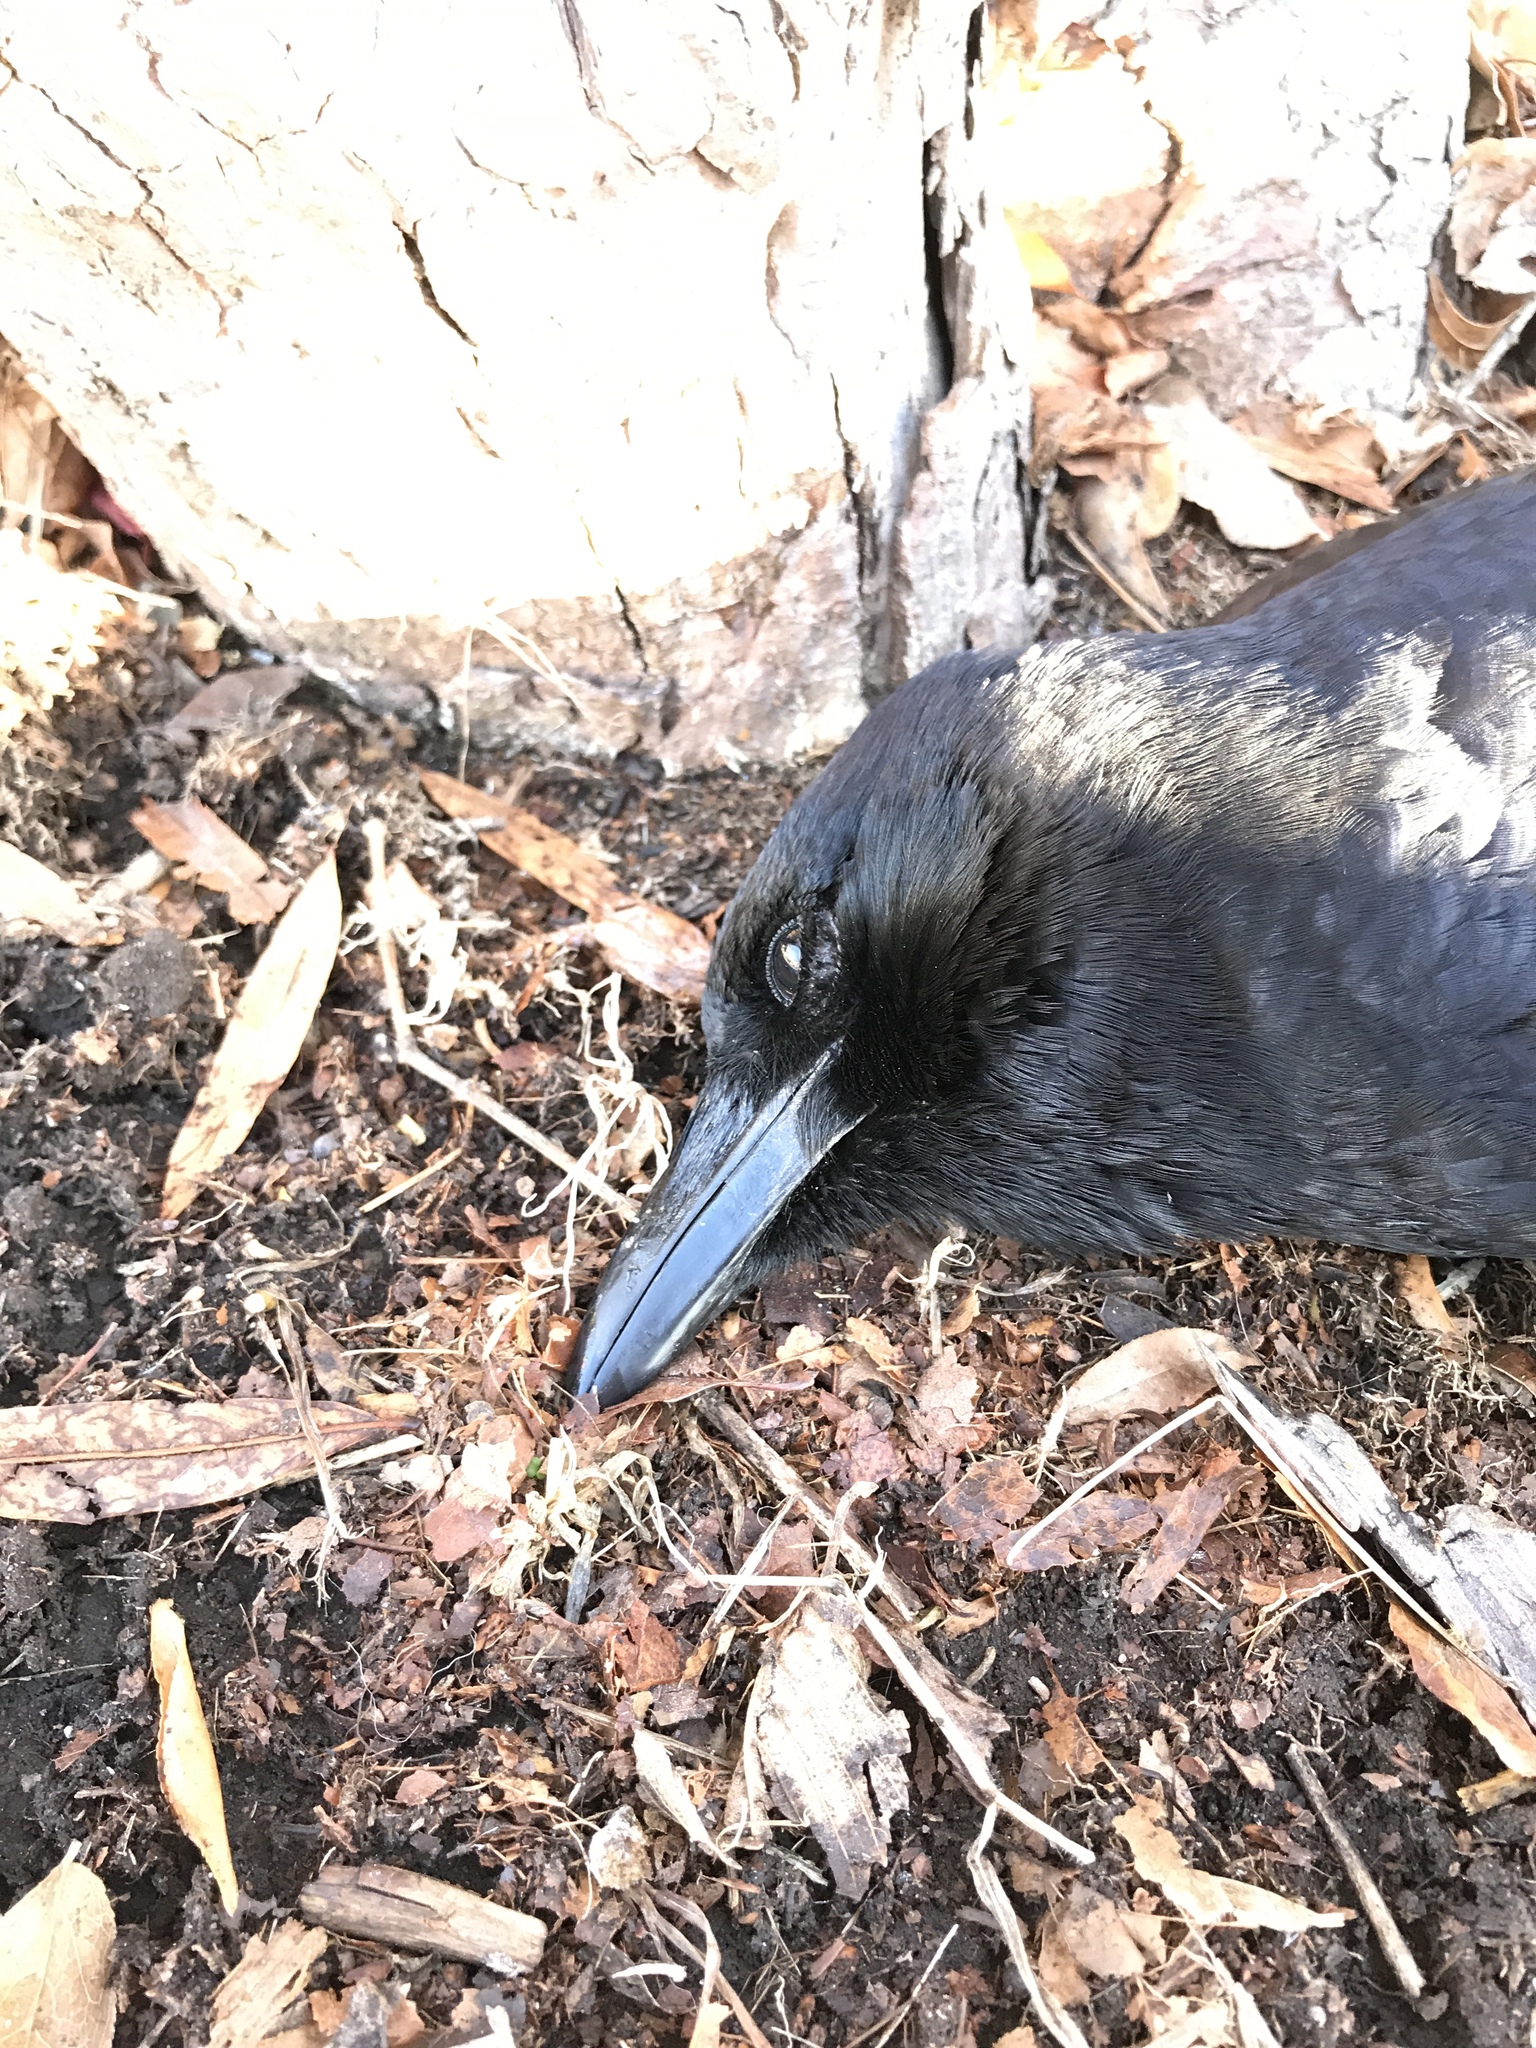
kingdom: Animalia
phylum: Chordata
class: Aves
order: Passeriformes
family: Corvidae
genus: Corvus
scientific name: Corvus brachyrhynchos
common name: American crow
